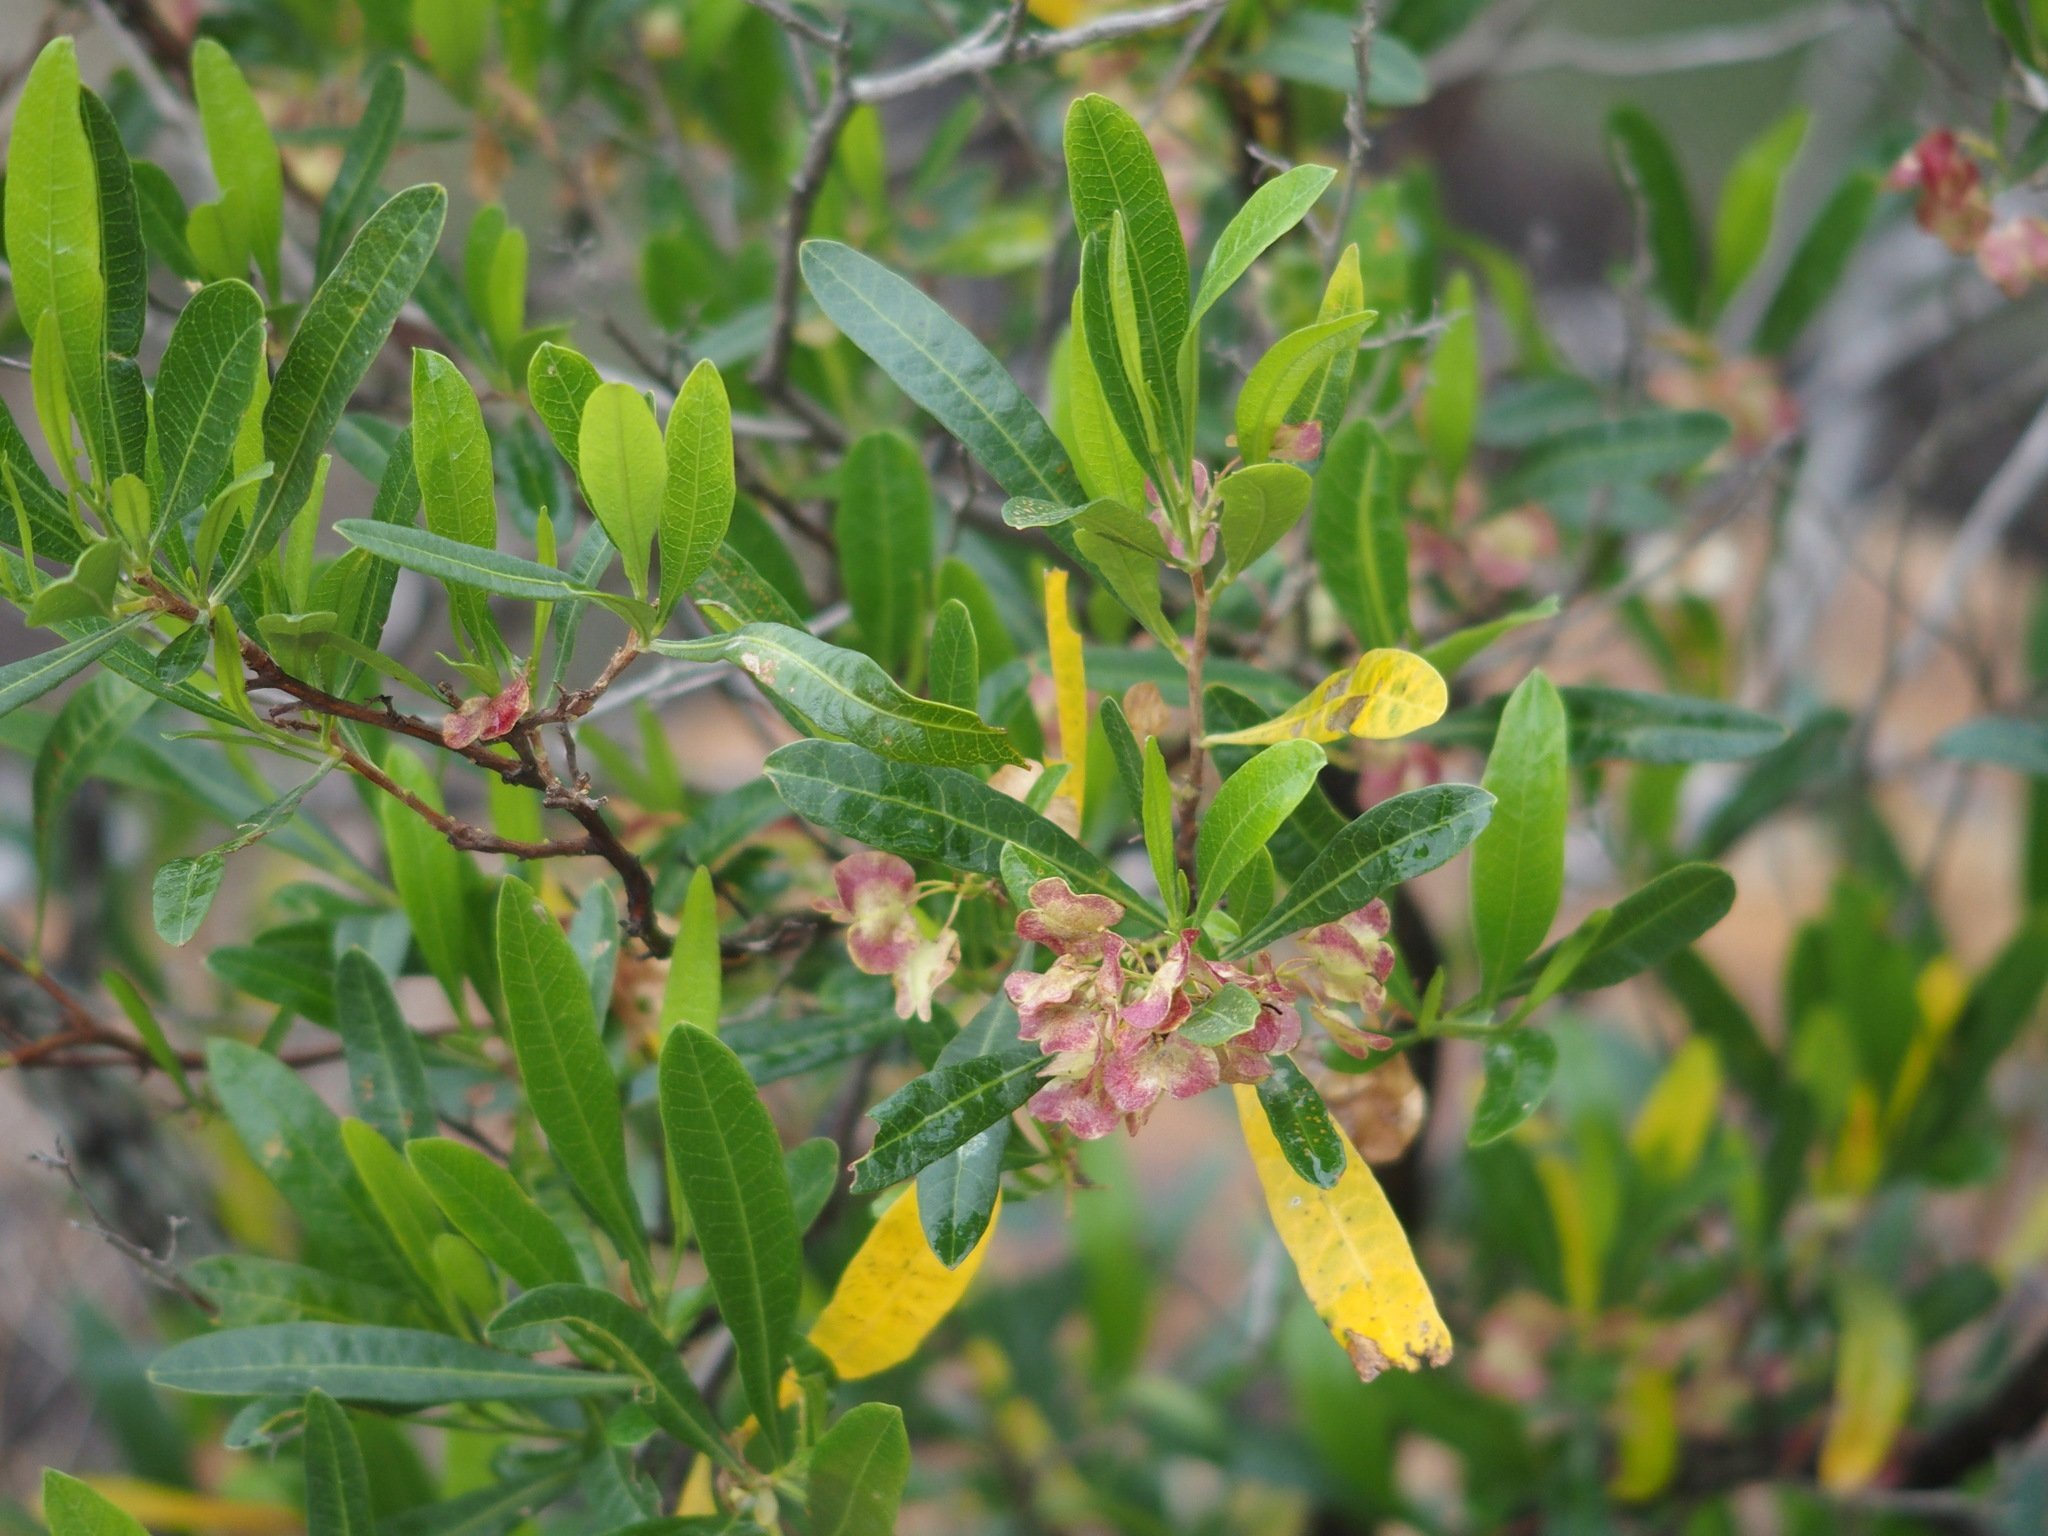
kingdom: Plantae
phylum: Tracheophyta
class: Magnoliopsida
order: Sapindales
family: Sapindaceae
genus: Dodonaea
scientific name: Dodonaea viscosa
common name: Hopbush
